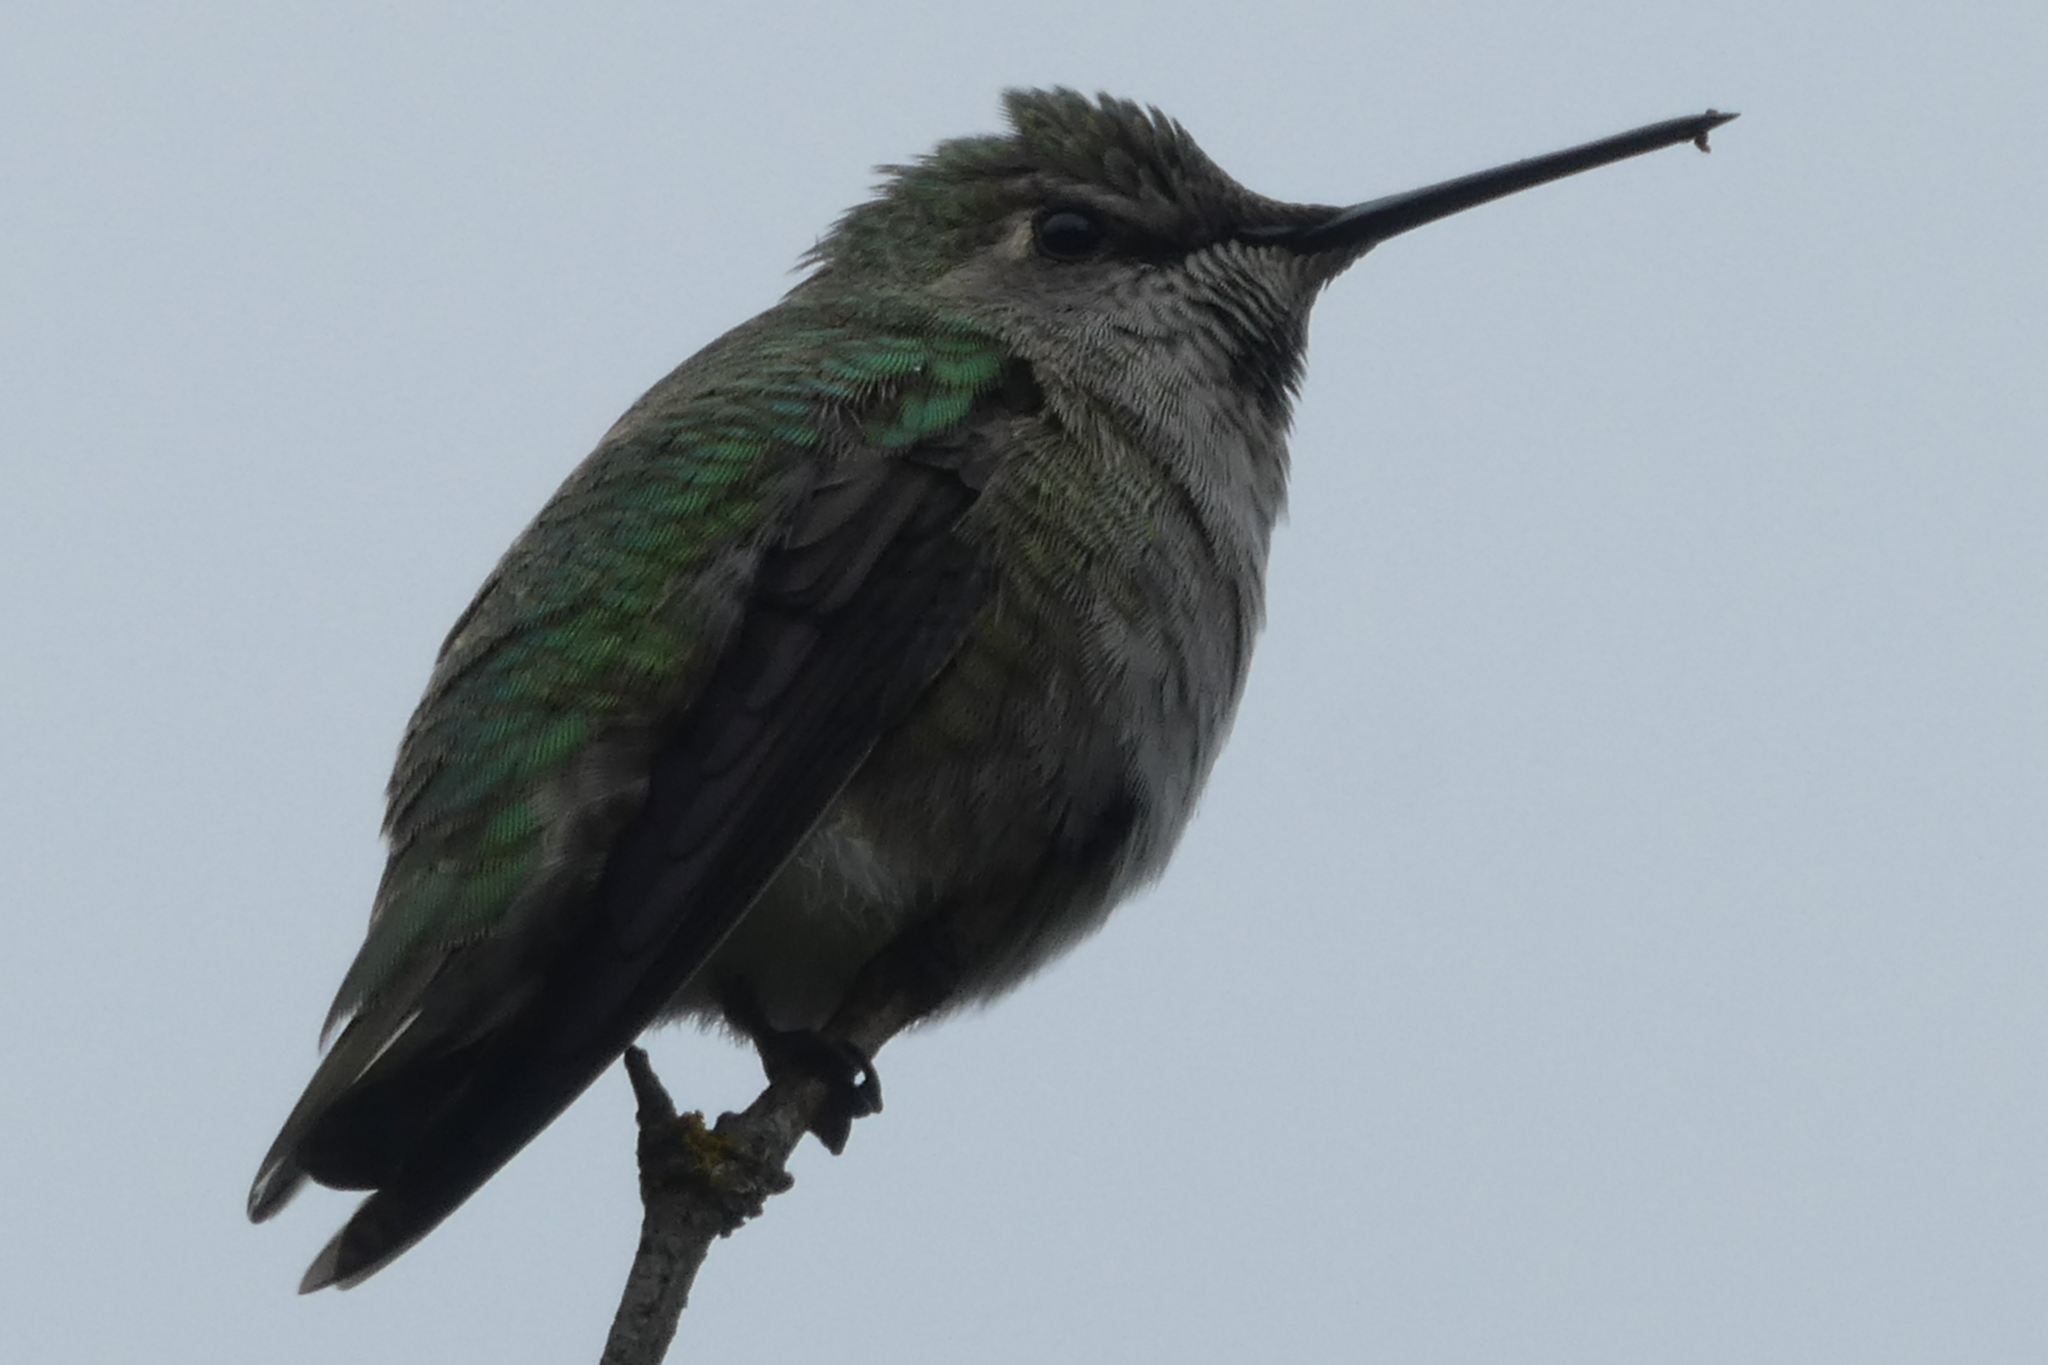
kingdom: Animalia
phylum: Chordata
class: Aves
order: Apodiformes
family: Trochilidae
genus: Calypte
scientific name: Calypte anna
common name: Anna's hummingbird
